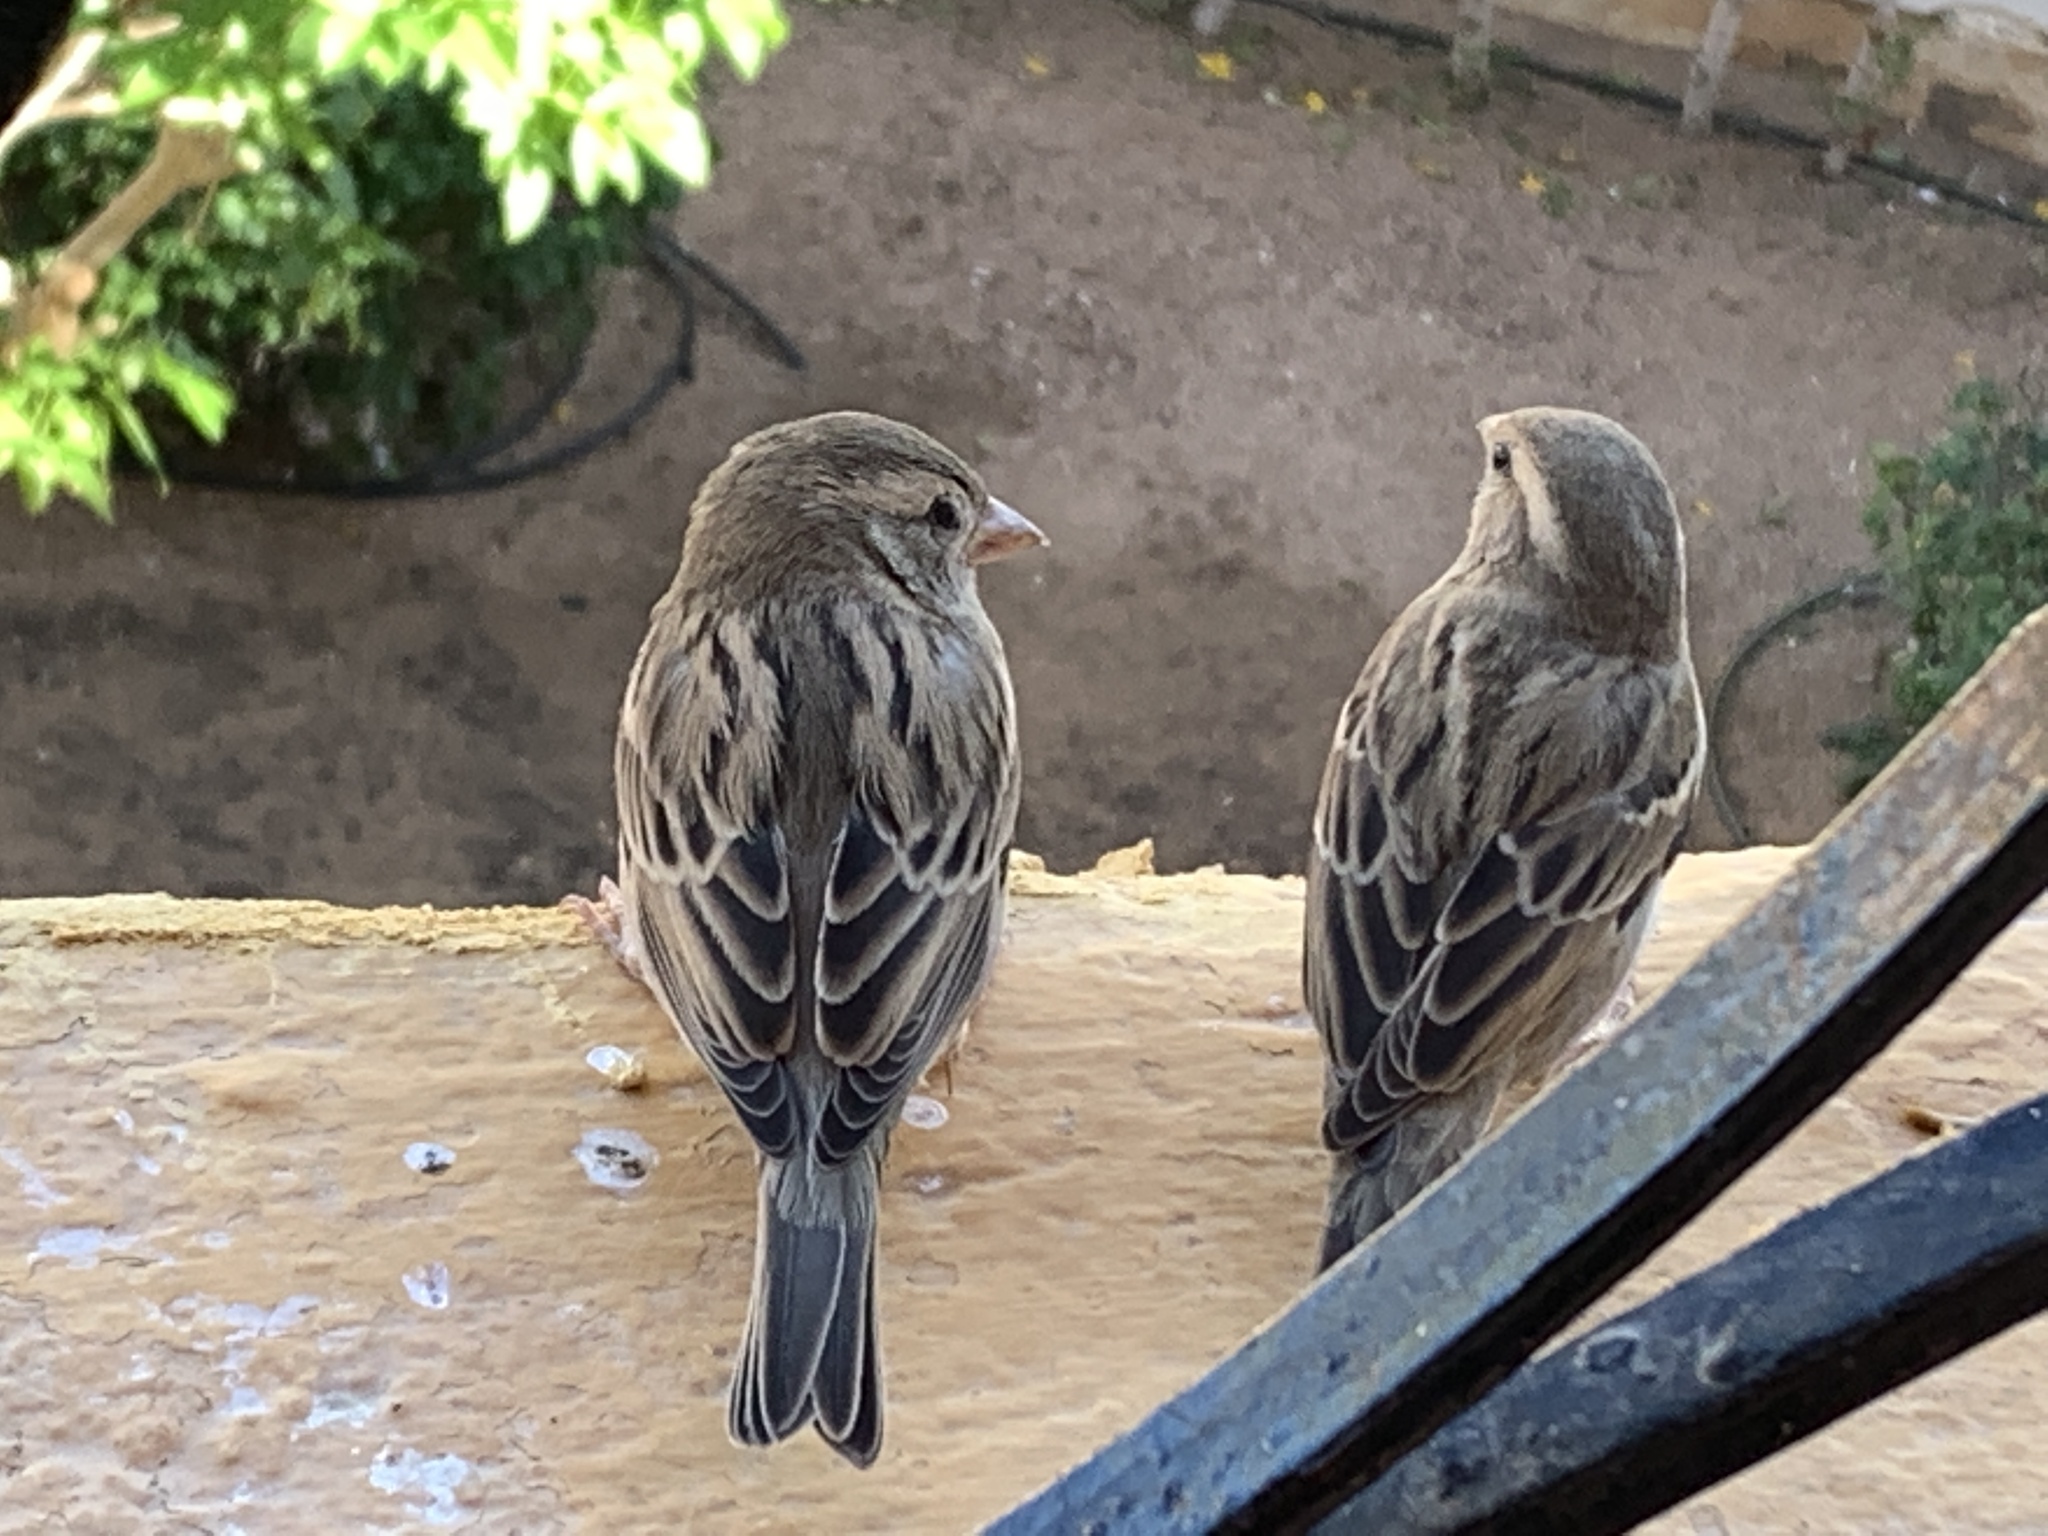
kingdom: Animalia
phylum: Chordata
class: Aves
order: Passeriformes
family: Passeridae
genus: Passer
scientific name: Passer domesticus
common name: House sparrow
